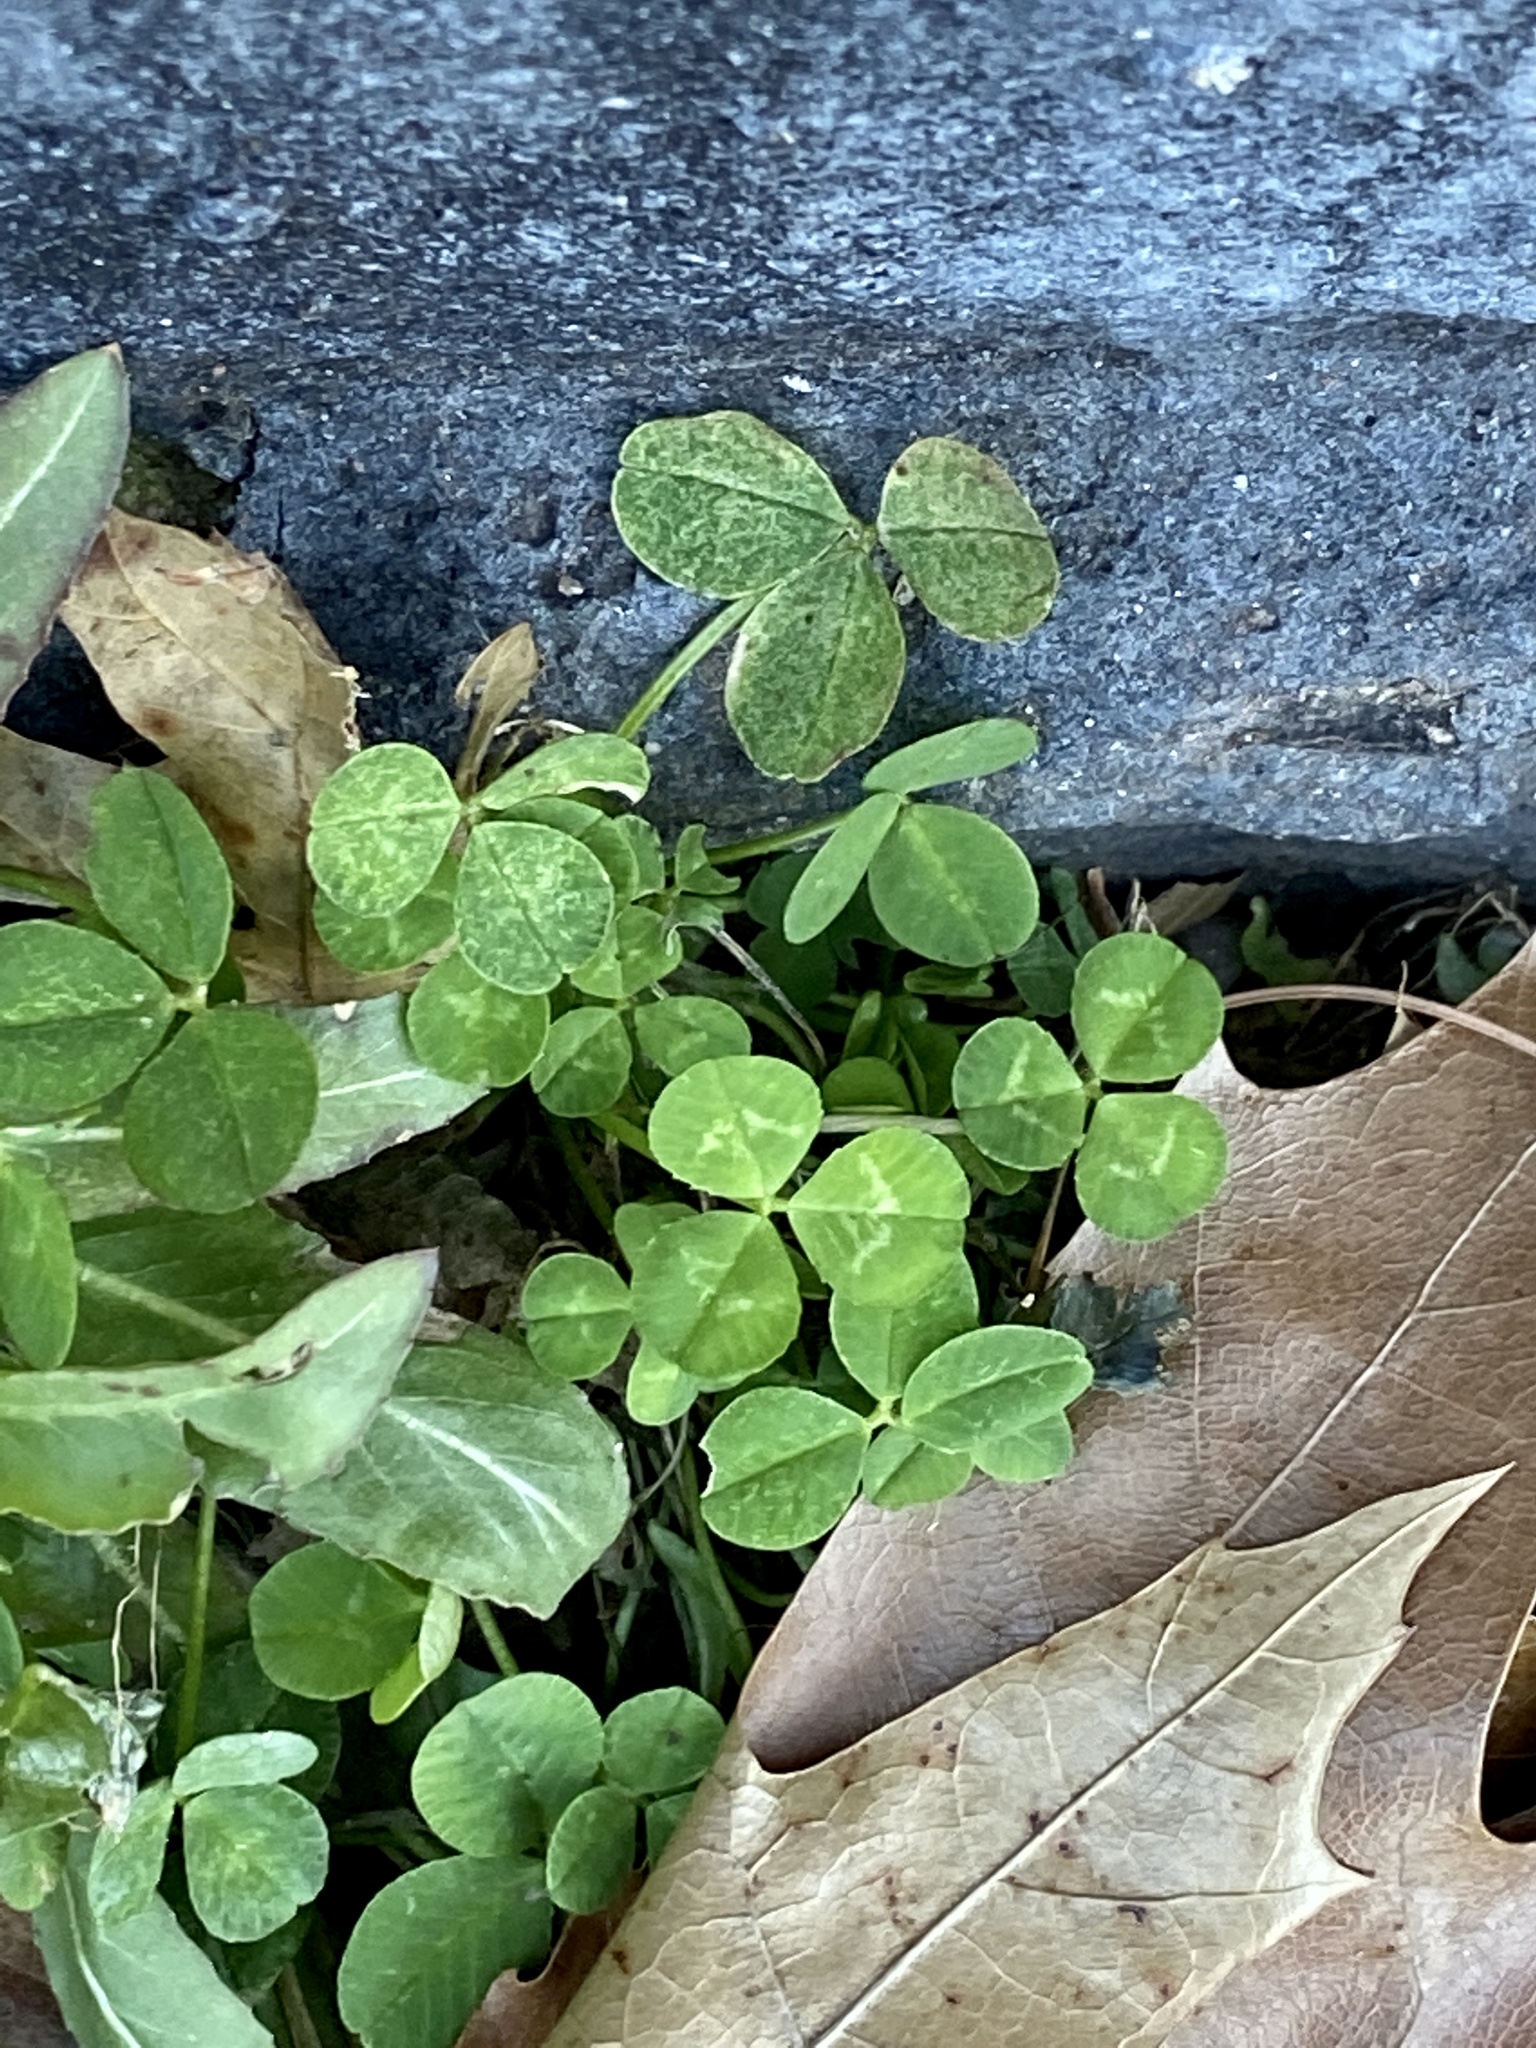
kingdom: Plantae
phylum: Tracheophyta
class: Magnoliopsida
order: Fabales
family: Fabaceae
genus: Trifolium
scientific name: Trifolium repens
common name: White clover
